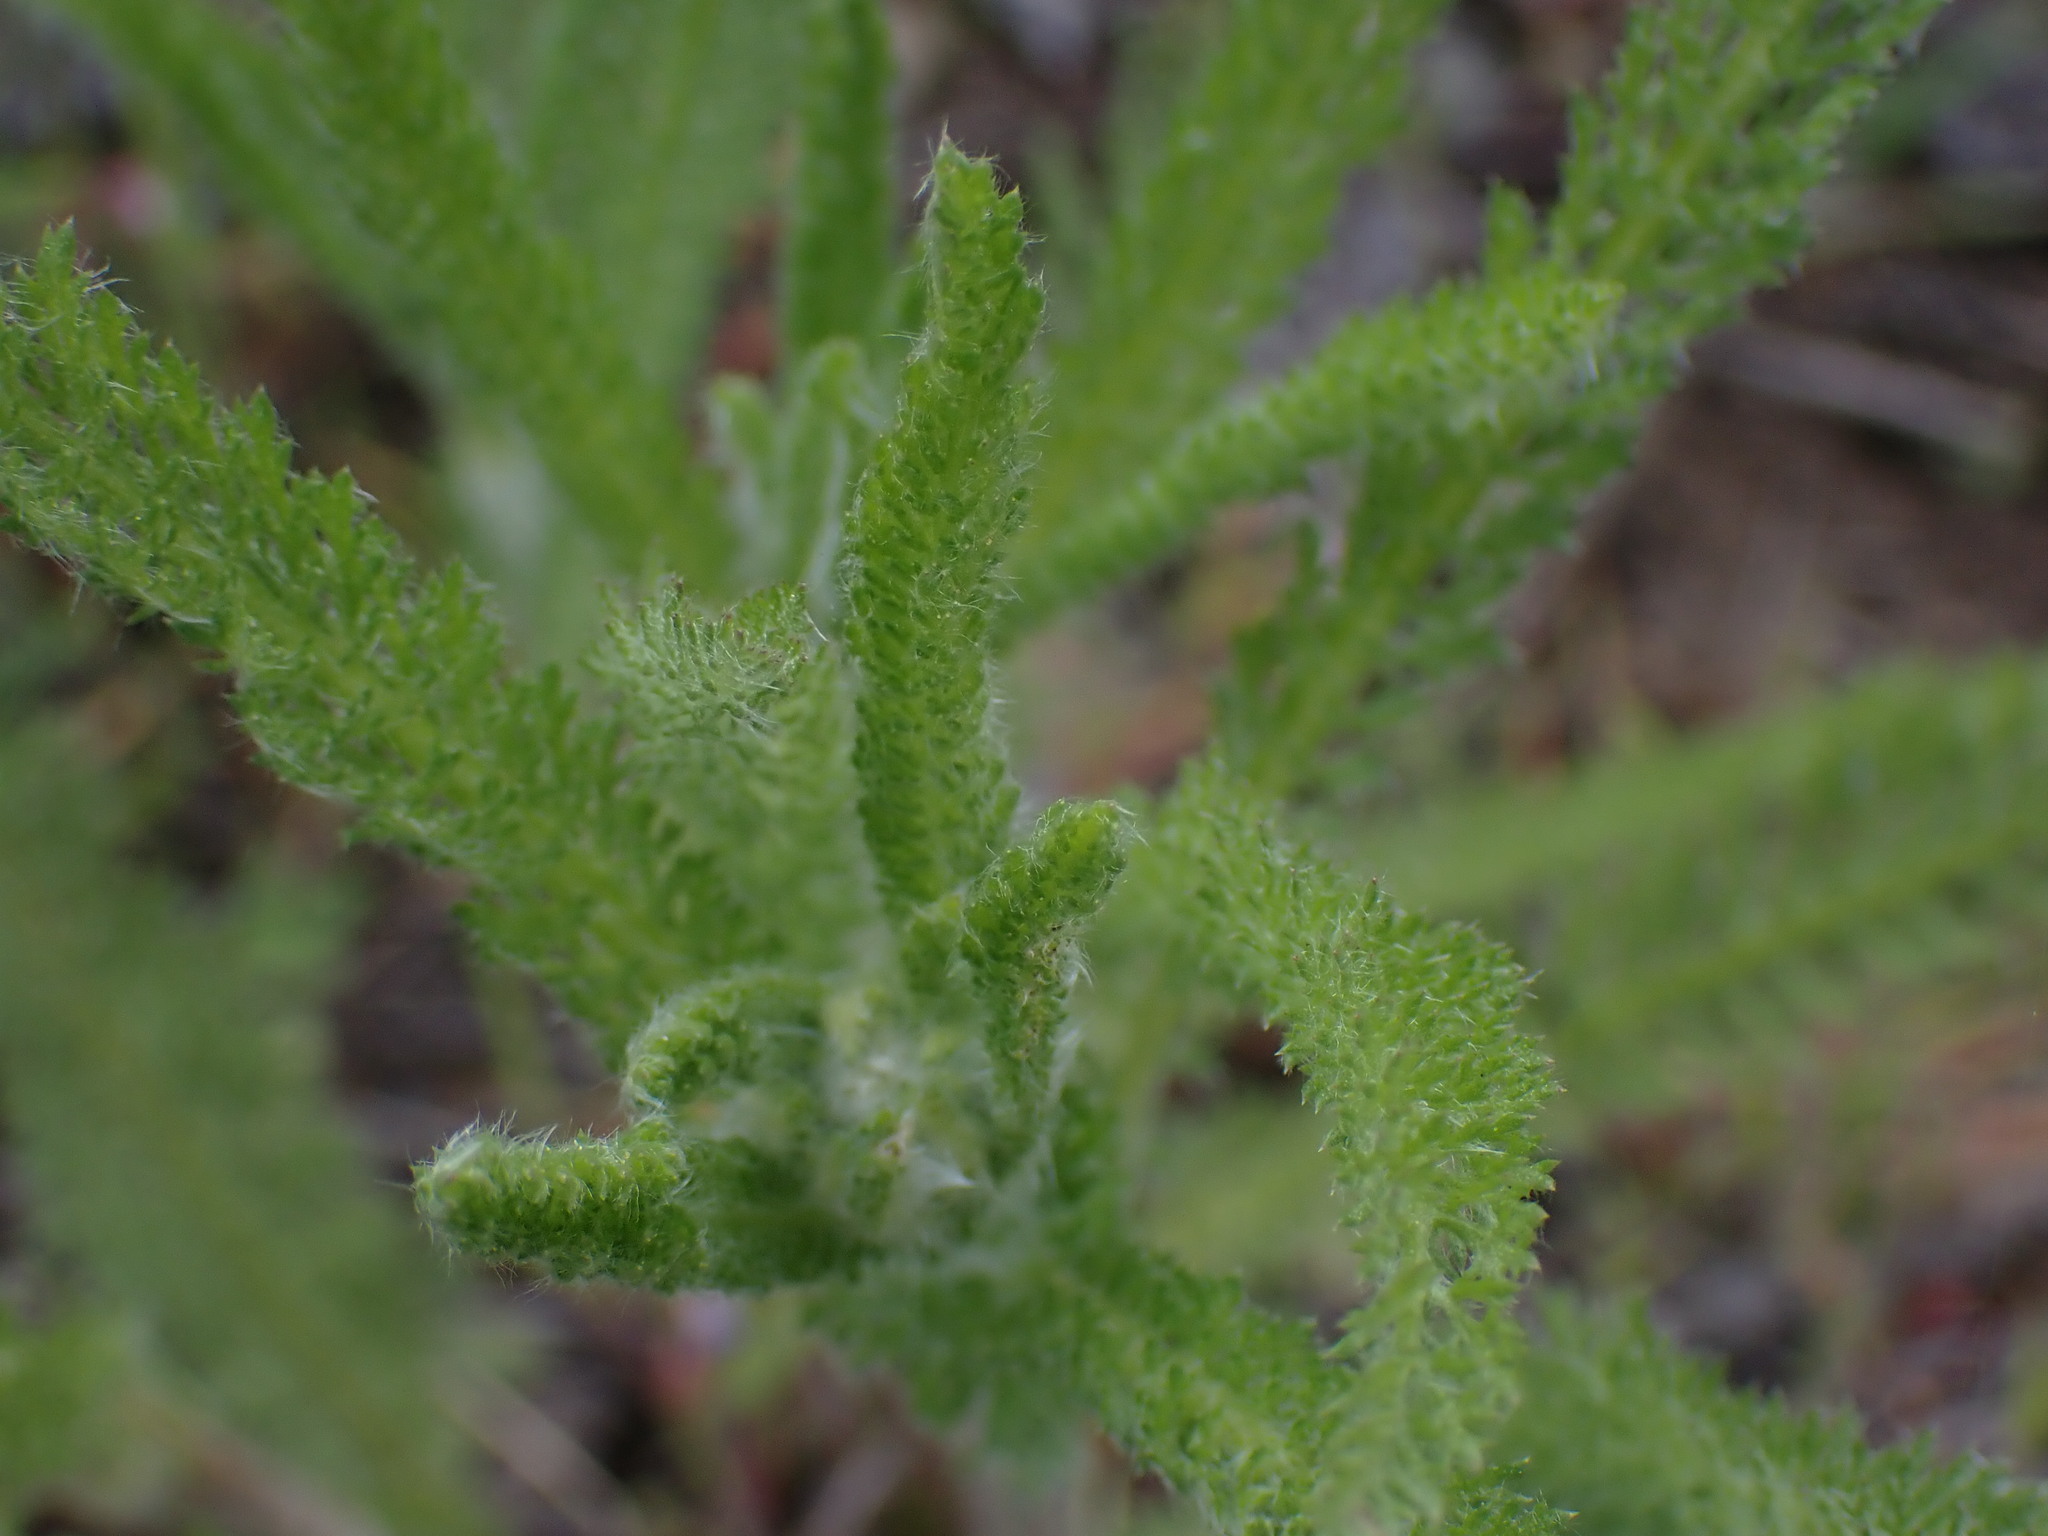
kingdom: Plantae
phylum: Tracheophyta
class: Magnoliopsida
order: Asterales
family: Asteraceae
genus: Achillea
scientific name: Achillea millefolium
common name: Yarrow
